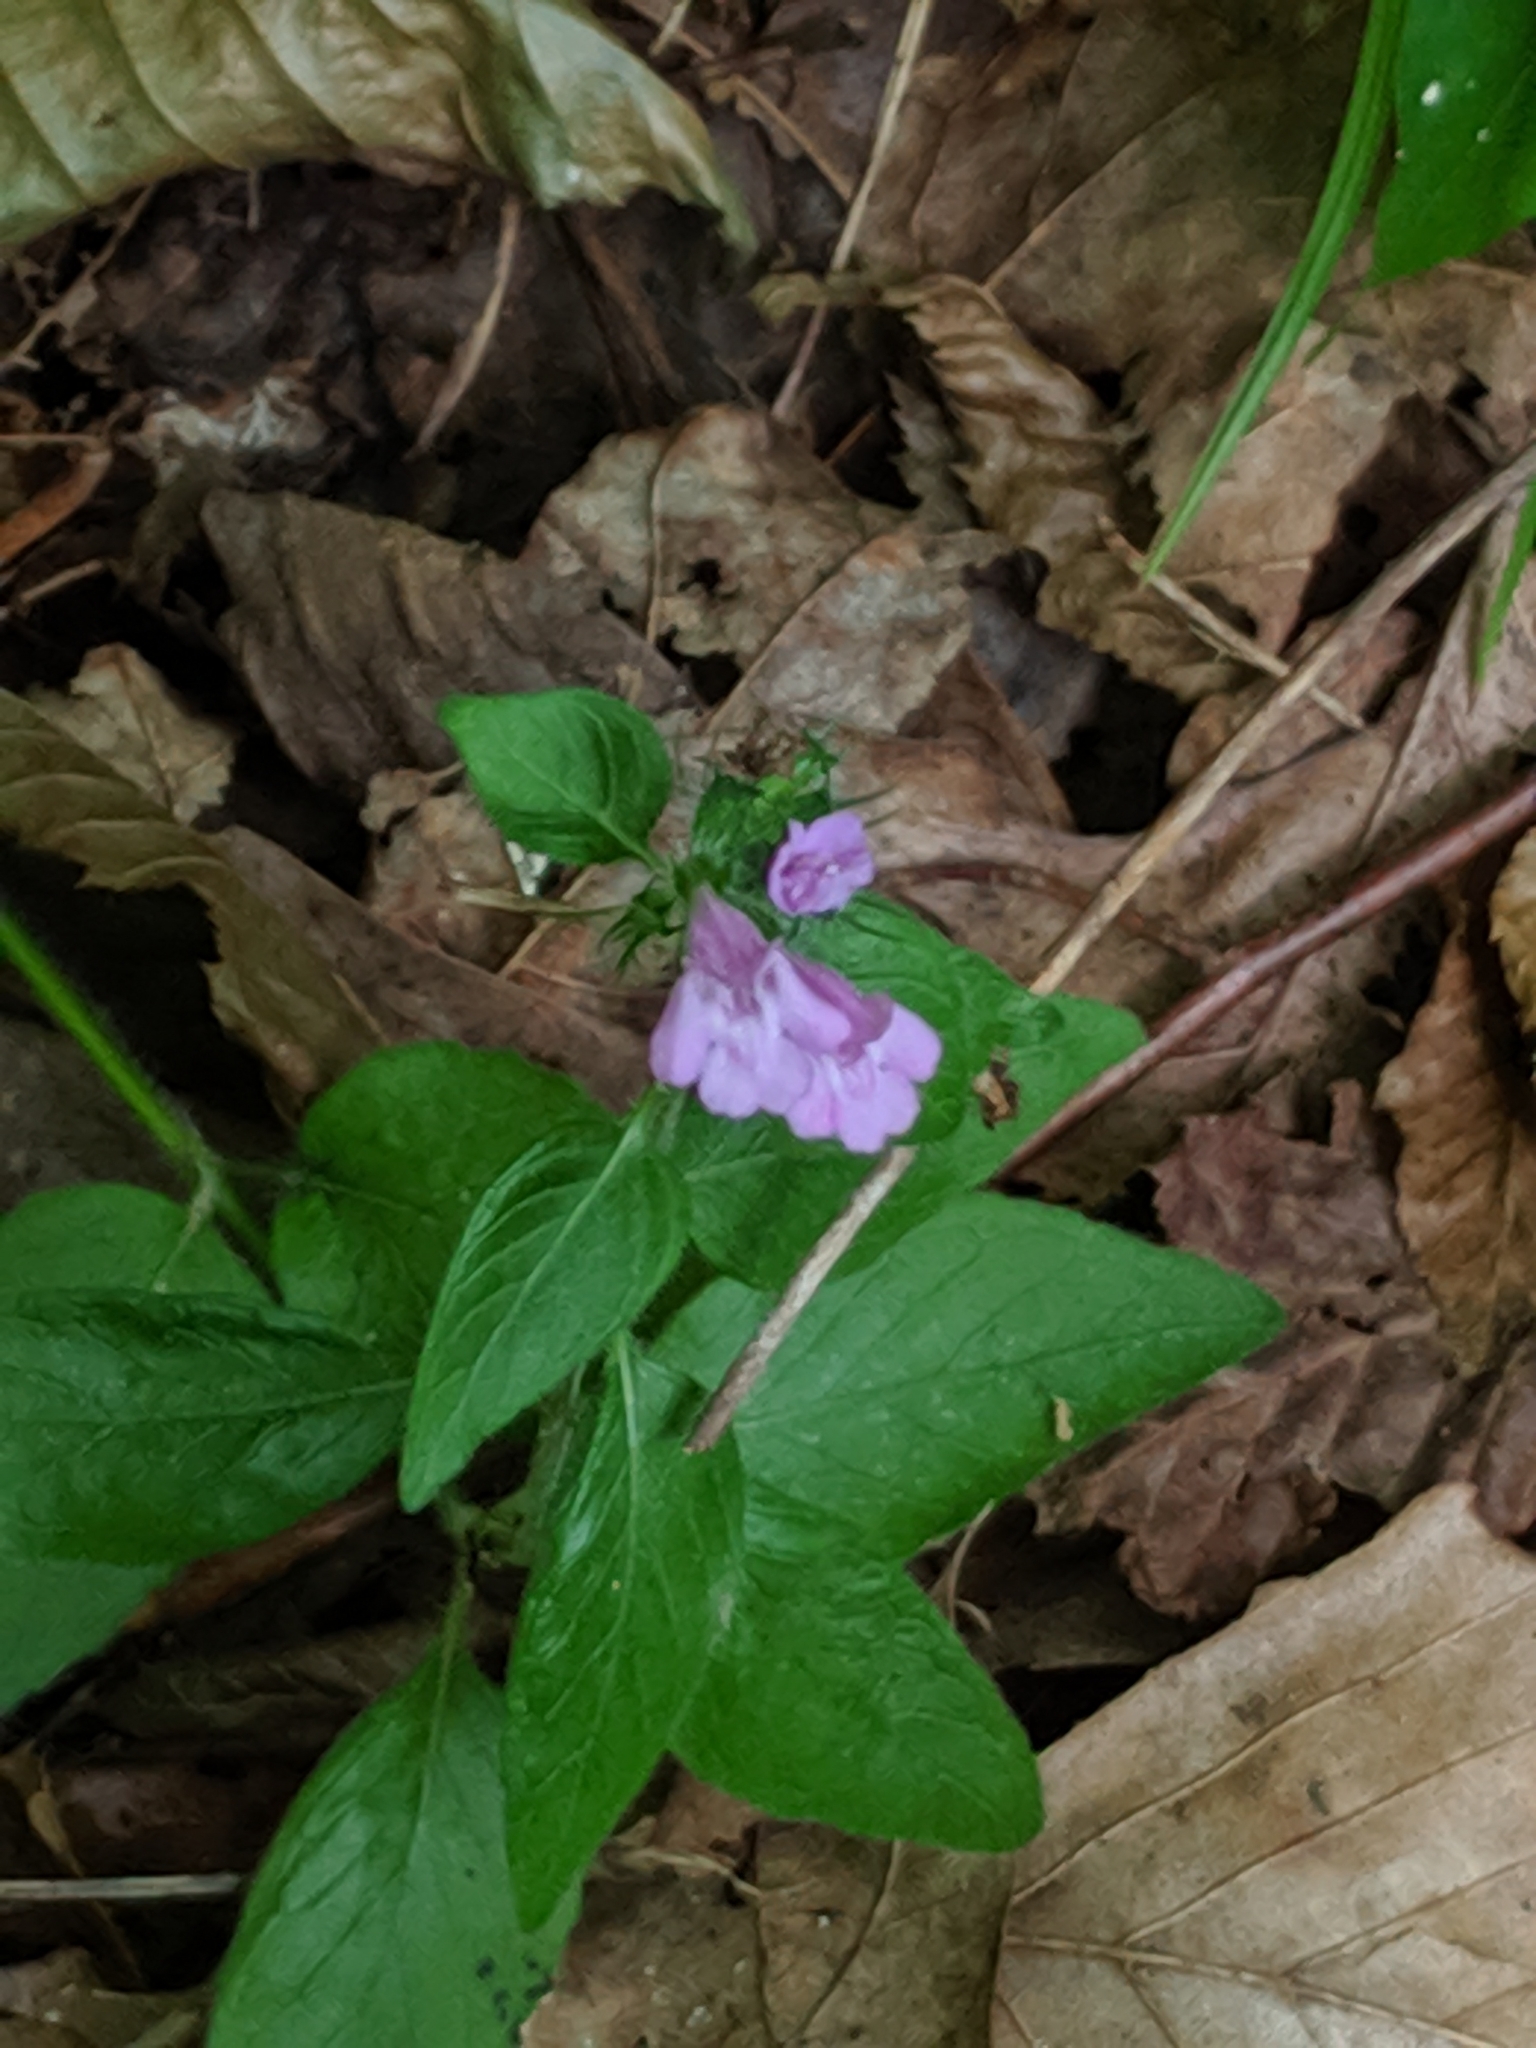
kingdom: Plantae
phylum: Tracheophyta
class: Magnoliopsida
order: Lamiales
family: Lamiaceae
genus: Clinopodium
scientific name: Clinopodium vulgare
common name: Wild basil
